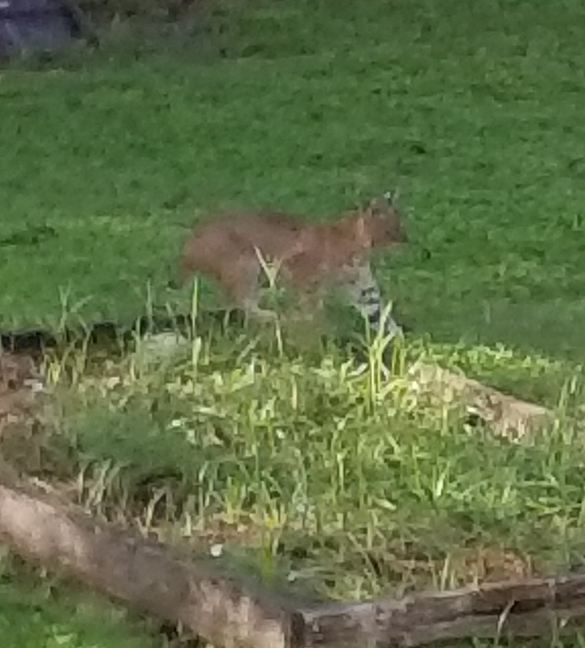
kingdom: Animalia
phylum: Chordata
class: Mammalia
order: Carnivora
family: Felidae
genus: Lynx
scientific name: Lynx rufus
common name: Bobcat
